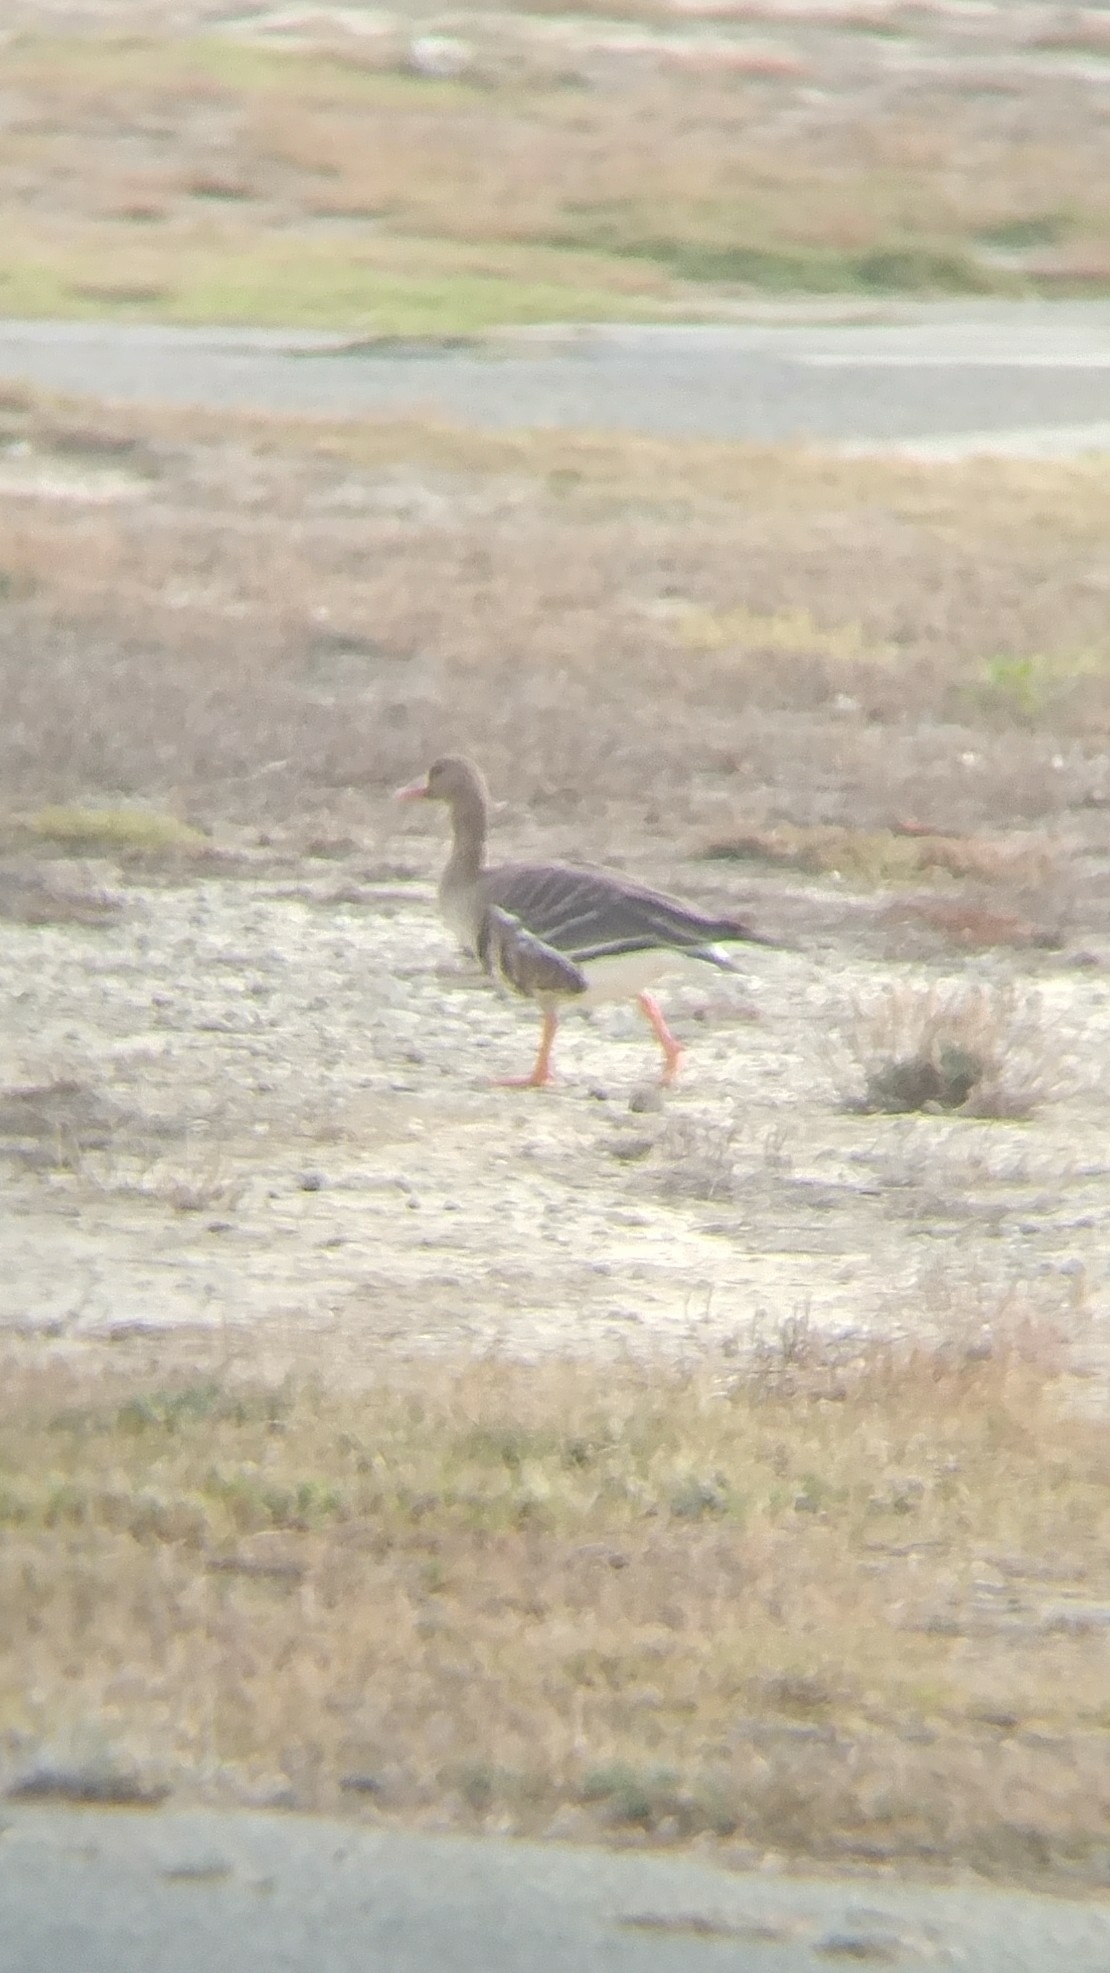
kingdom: Animalia
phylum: Chordata
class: Aves
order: Anseriformes
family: Anatidae
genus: Anser
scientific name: Anser albifrons
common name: Greater white-fronted goose
